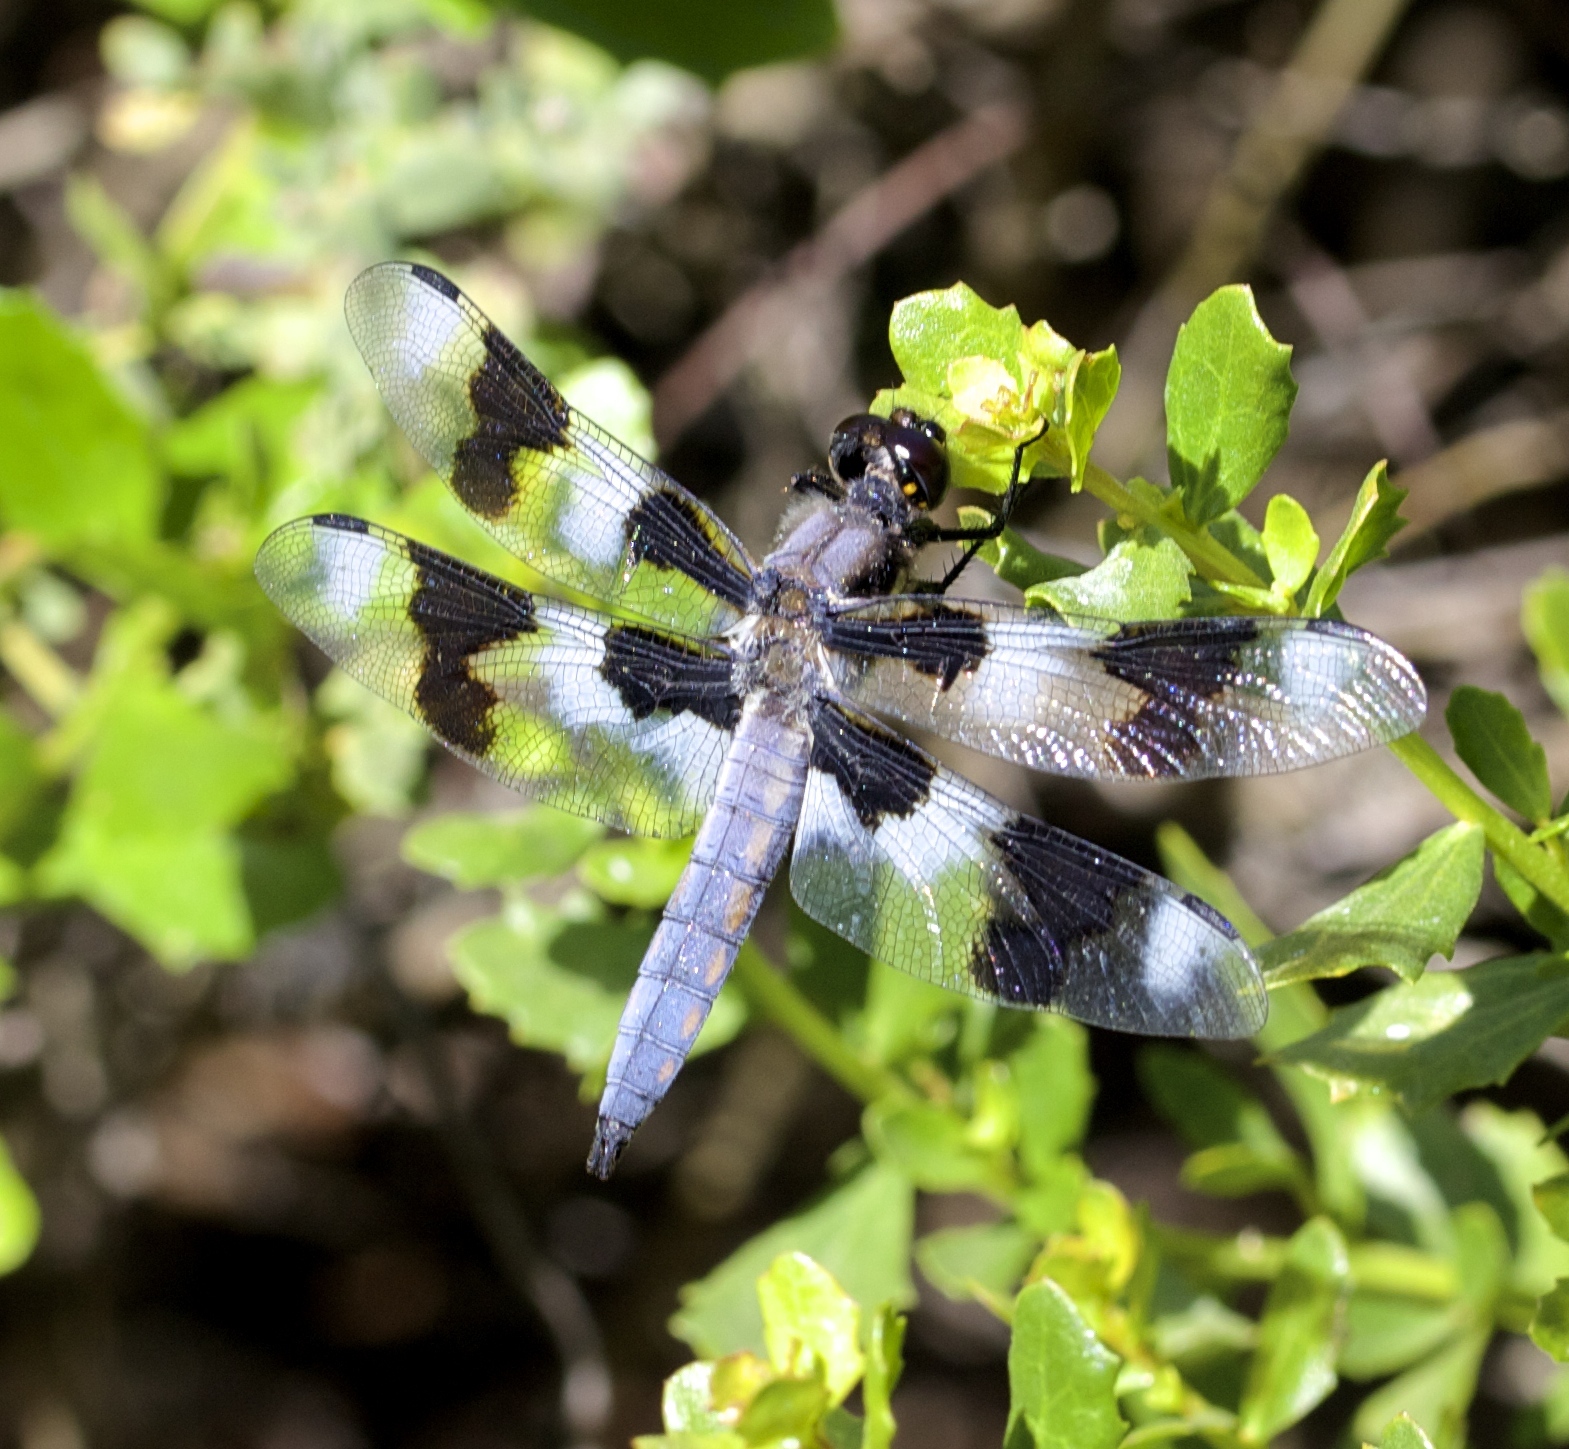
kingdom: Animalia
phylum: Arthropoda
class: Insecta
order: Odonata
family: Libellulidae
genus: Libellula
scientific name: Libellula forensis
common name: Eight-spotted skimmer
